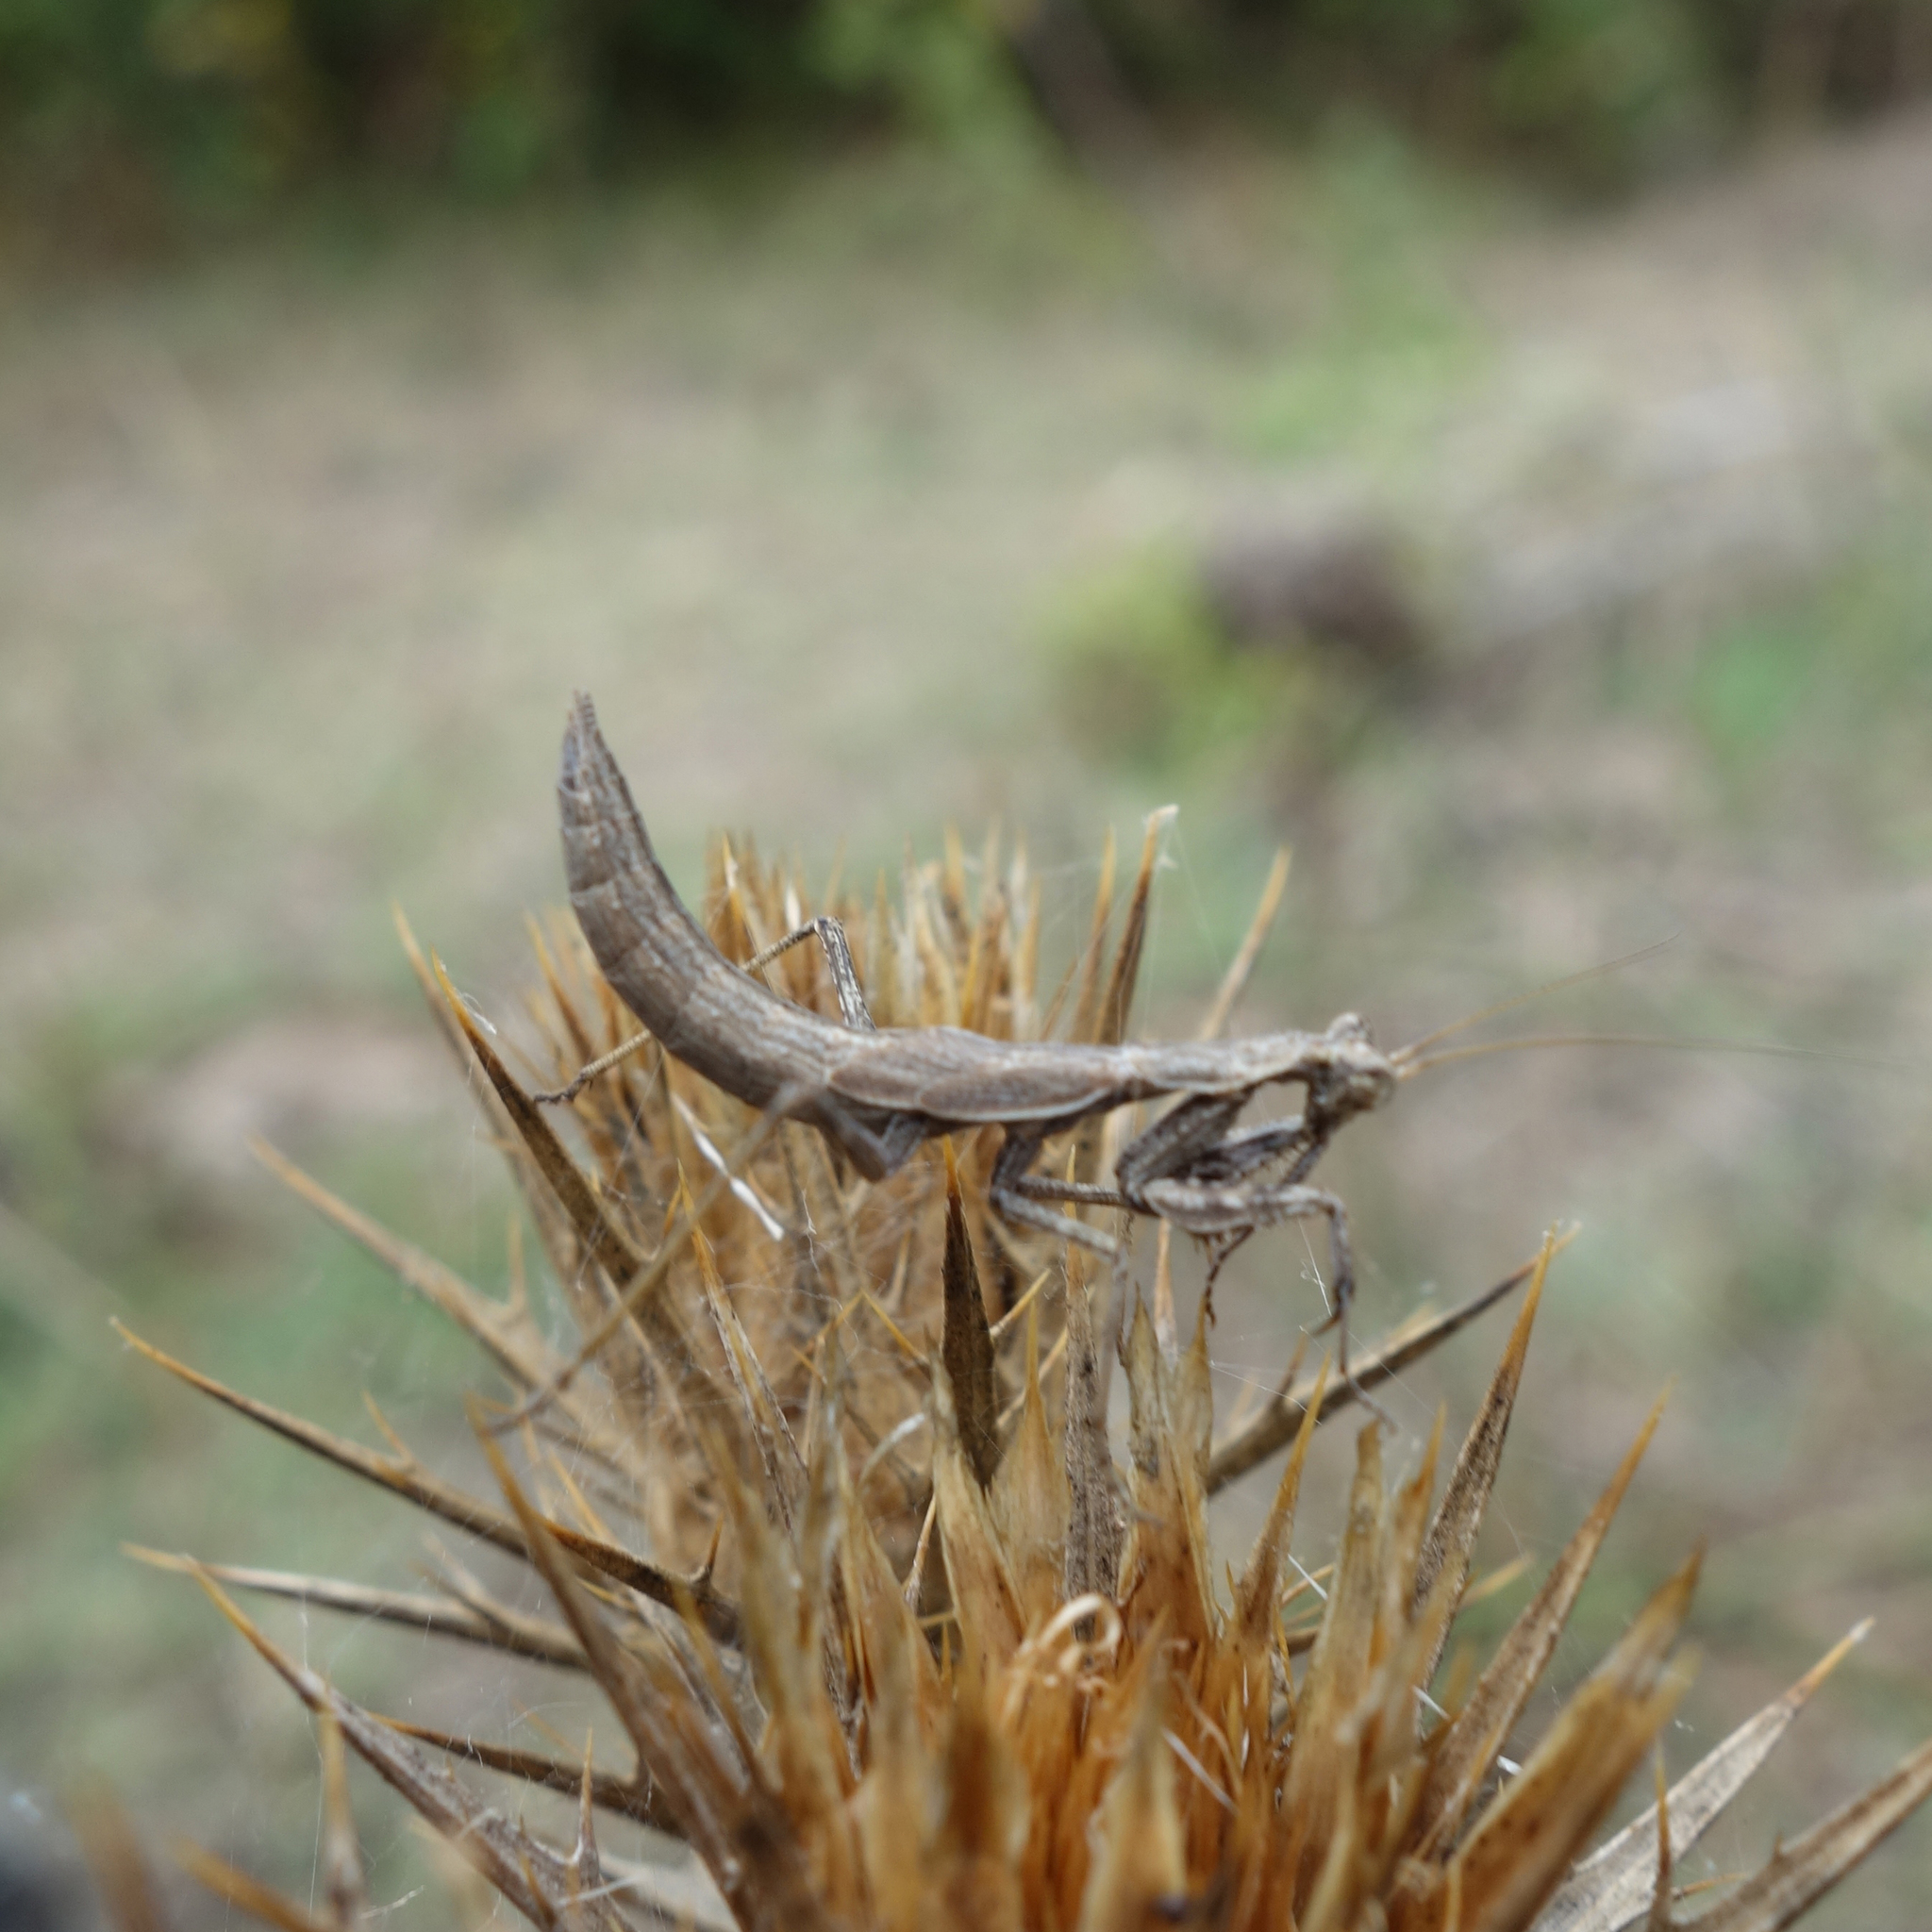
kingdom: Animalia
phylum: Arthropoda
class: Insecta
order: Mantodea
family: Amelidae
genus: Ameles
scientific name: Ameles decolor
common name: Dwarf mantis
